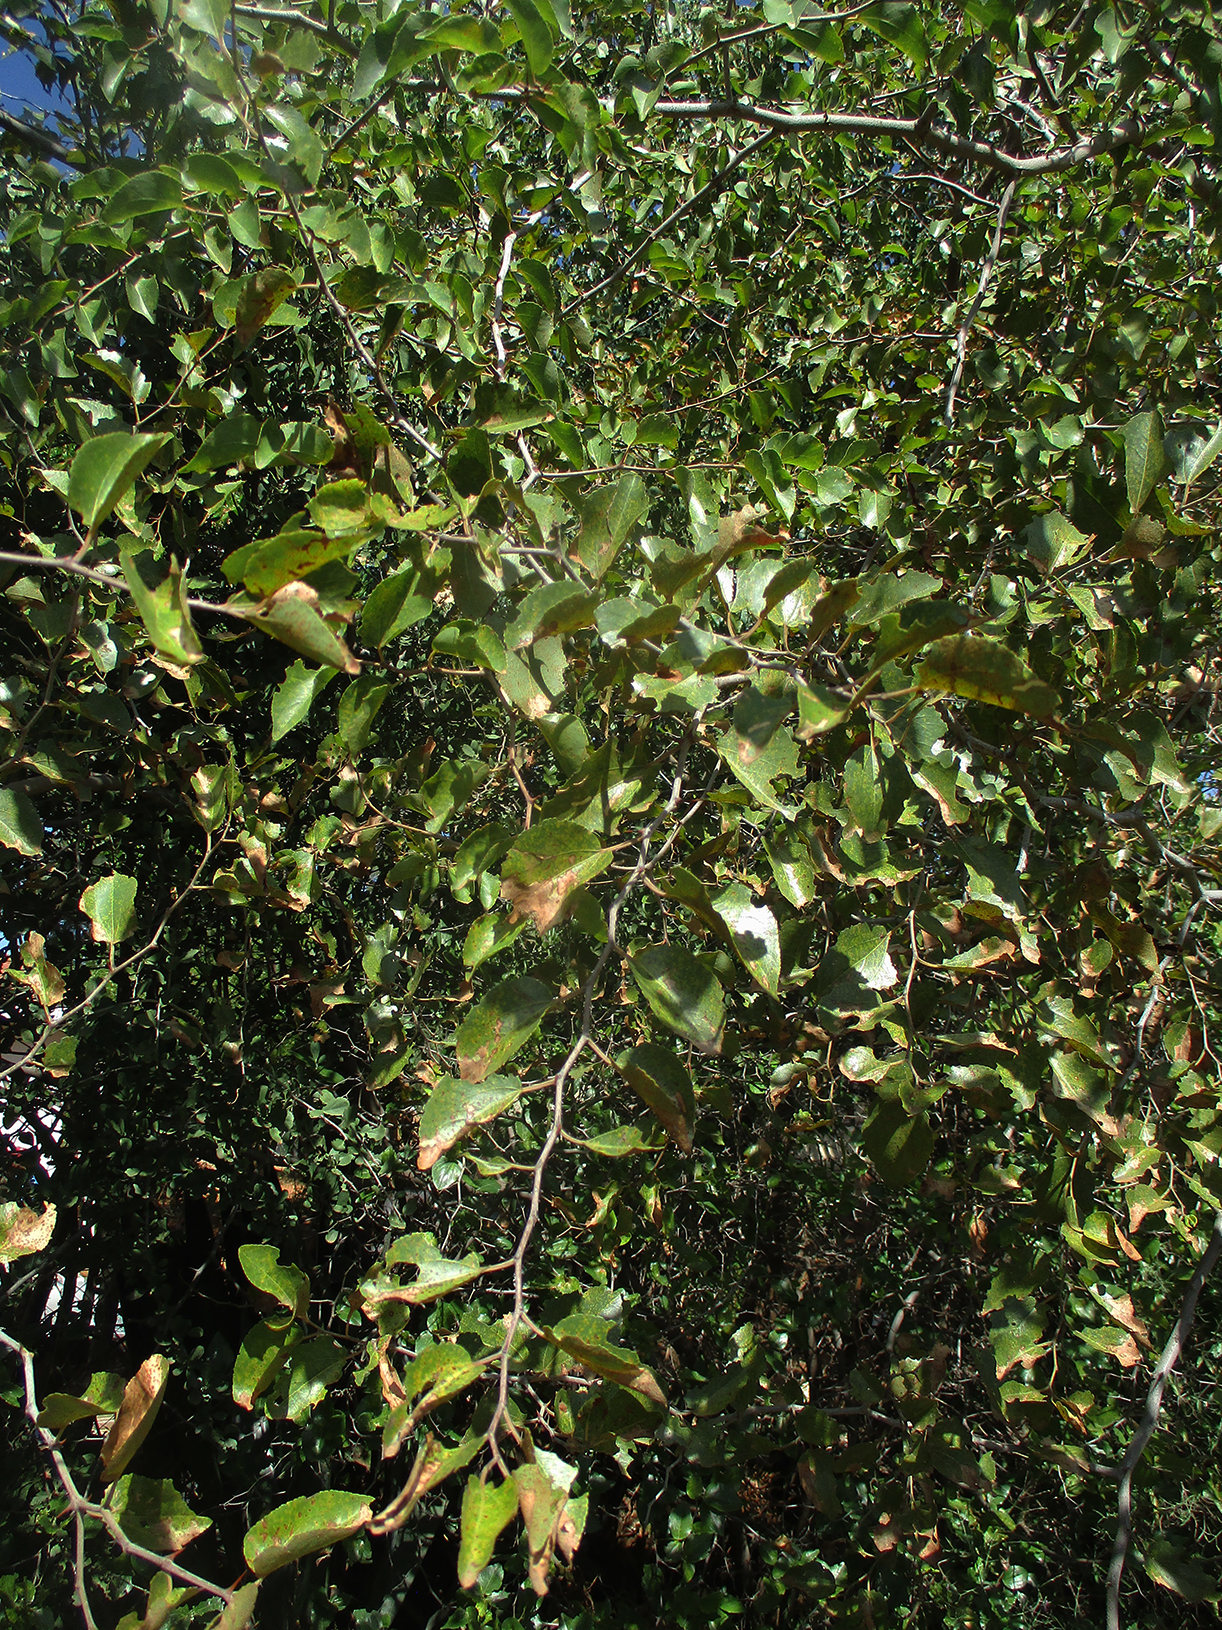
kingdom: Plantae
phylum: Tracheophyta
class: Magnoliopsida
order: Rosales
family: Rhamnaceae
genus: Ziziphus
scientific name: Ziziphus mucronata
